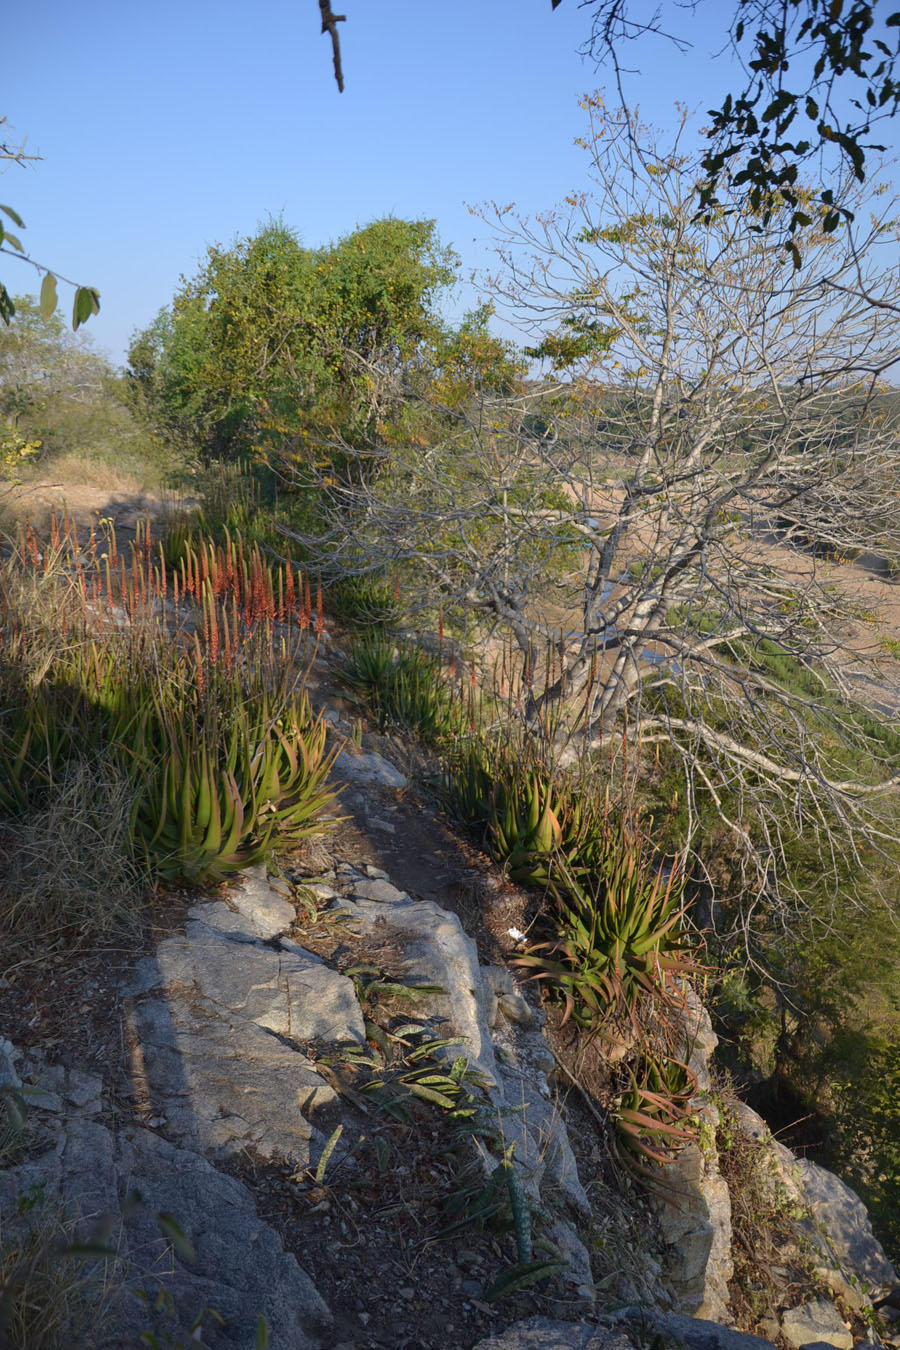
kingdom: Plantae
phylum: Tracheophyta
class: Liliopsida
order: Asparagales
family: Asphodelaceae
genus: Aloe
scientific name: Aloe lutescens
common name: Malapati aloe
